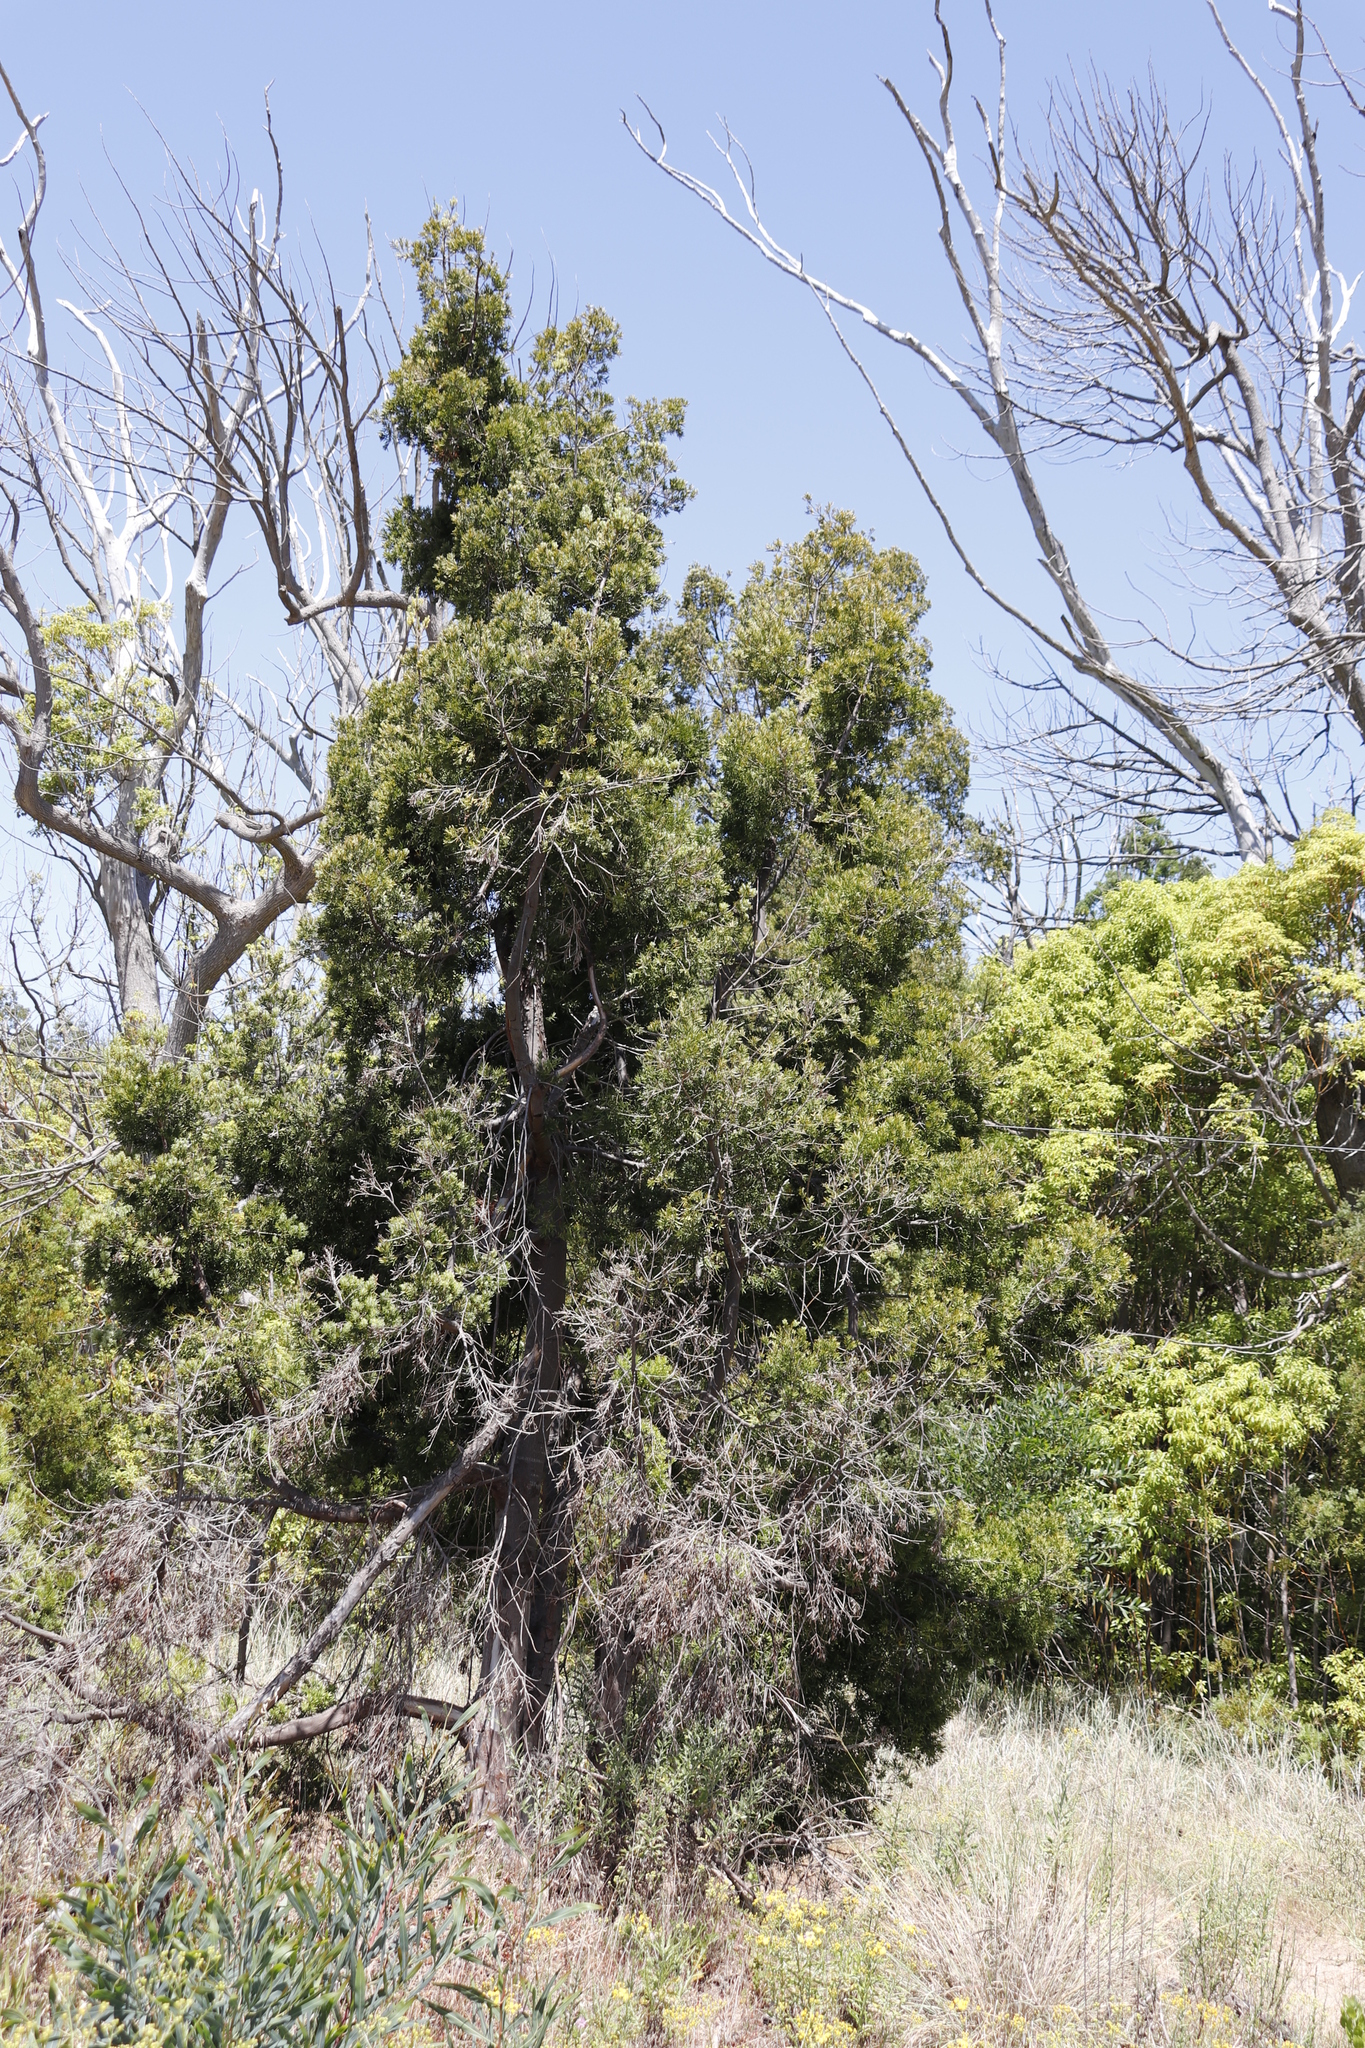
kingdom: Plantae
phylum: Tracheophyta
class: Pinopsida
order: Pinales
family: Podocarpaceae
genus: Afrocarpus
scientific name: Afrocarpus falcatus
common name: Bastard yellowwood
